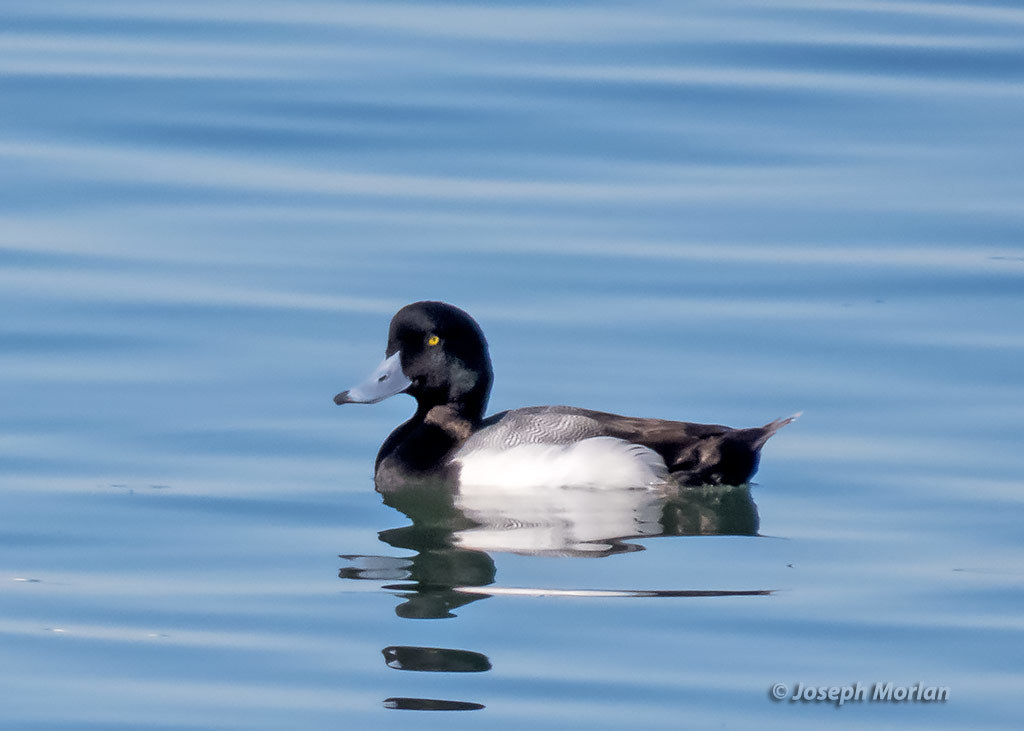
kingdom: Animalia
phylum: Chordata
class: Aves
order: Anseriformes
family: Anatidae
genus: Aythya
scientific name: Aythya marila
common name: Greater scaup
